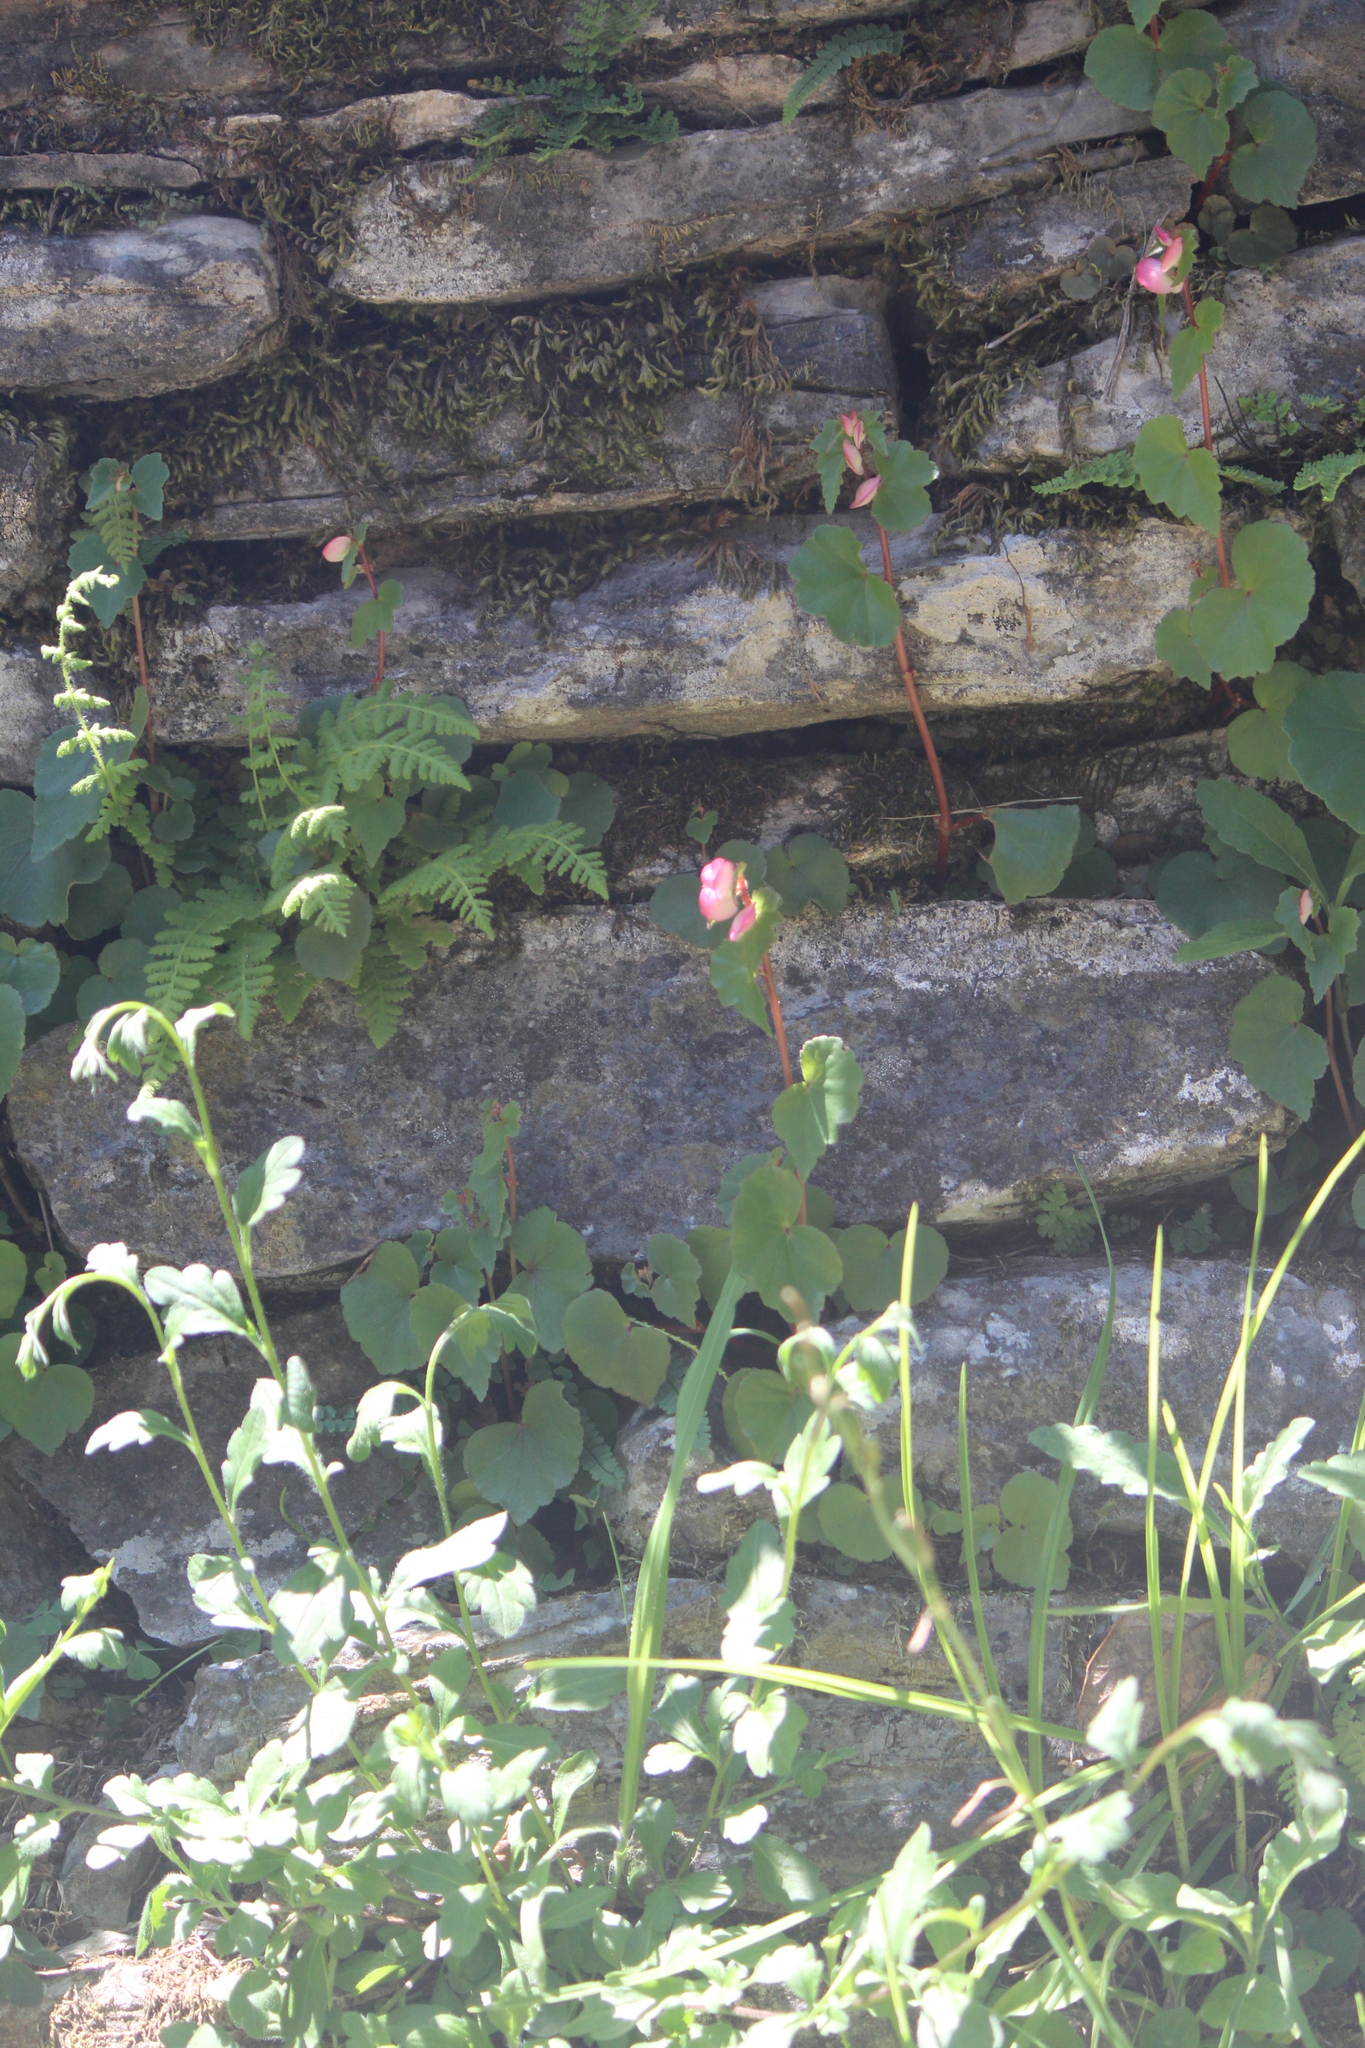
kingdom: Plantae
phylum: Tracheophyta
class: Magnoliopsida
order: Cucurbitales
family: Begoniaceae
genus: Begonia
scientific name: Begonia bulbillifera
